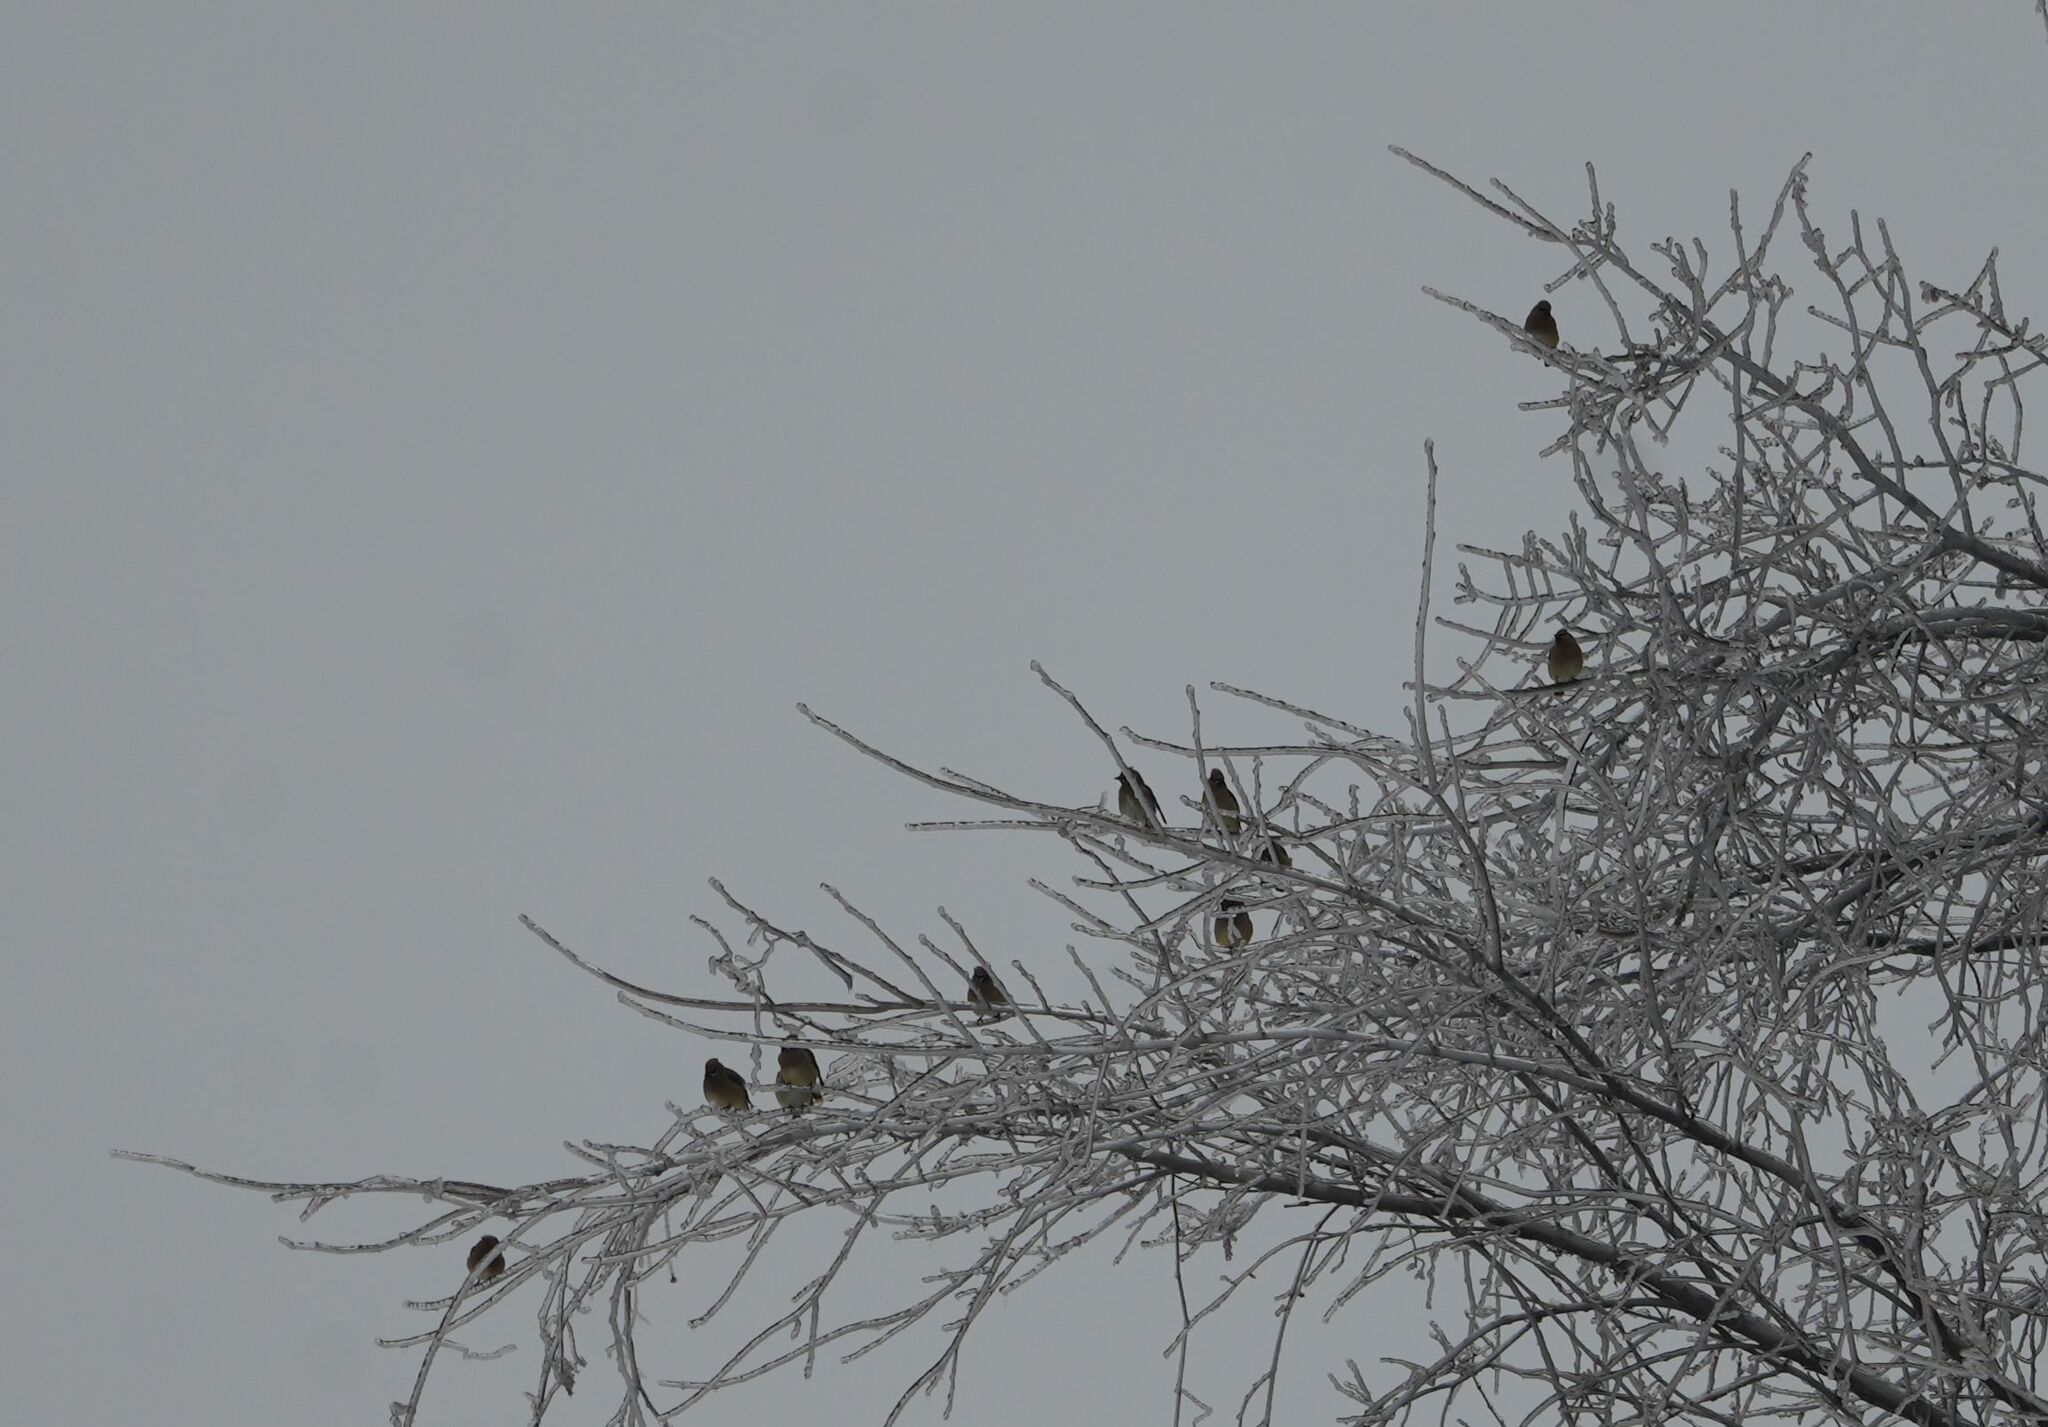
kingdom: Animalia
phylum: Chordata
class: Aves
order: Passeriformes
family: Bombycillidae
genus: Bombycilla
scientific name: Bombycilla cedrorum
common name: Cedar waxwing
